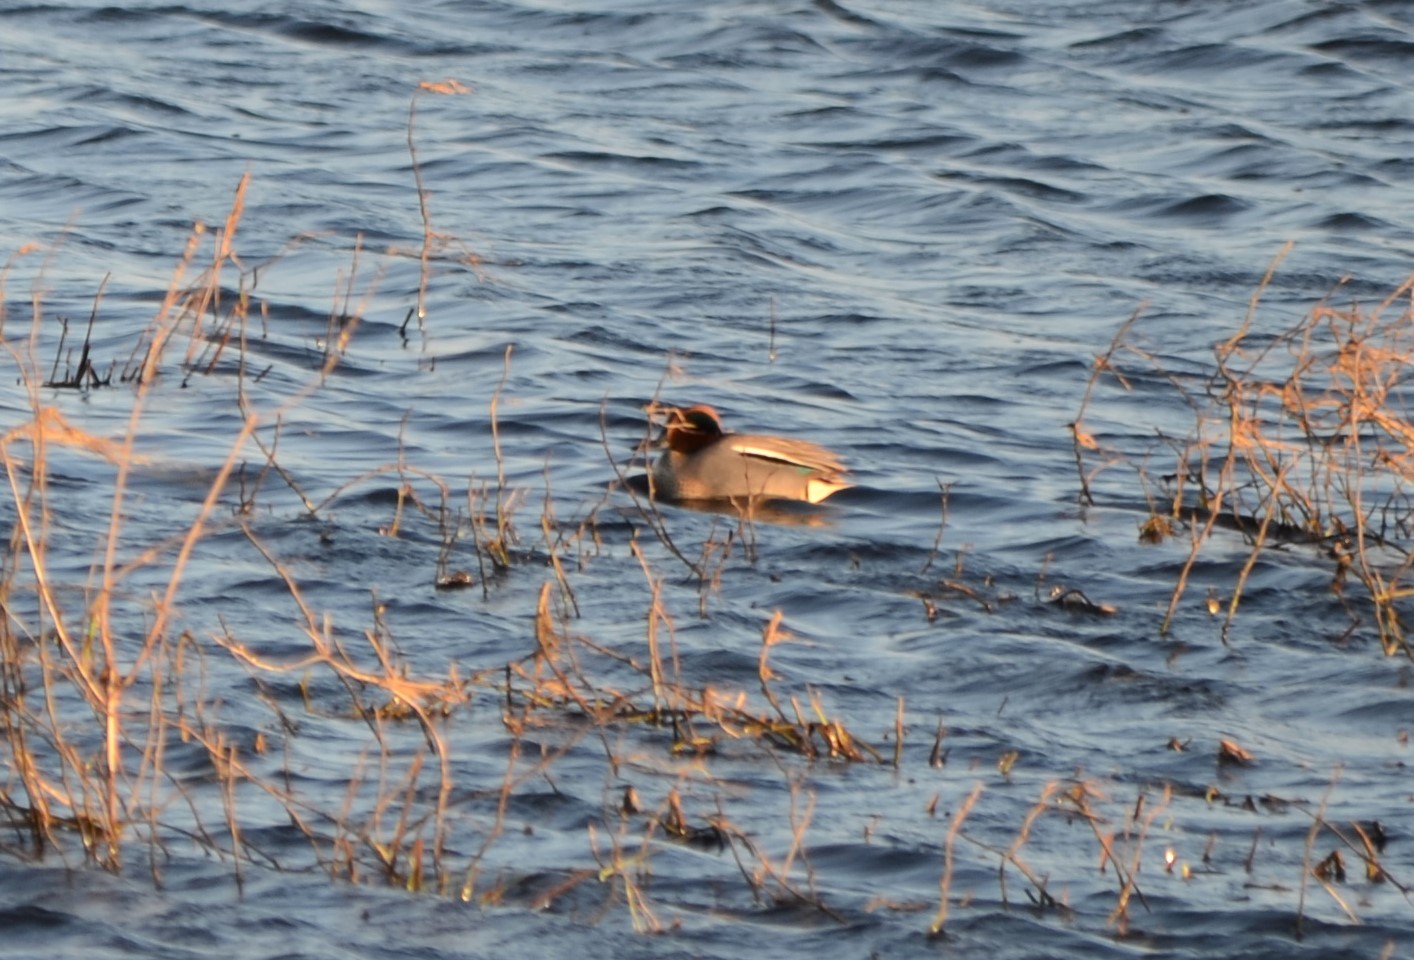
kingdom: Animalia
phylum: Chordata
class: Aves
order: Anseriformes
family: Anatidae
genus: Anas
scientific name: Anas crecca
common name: Eurasian teal
